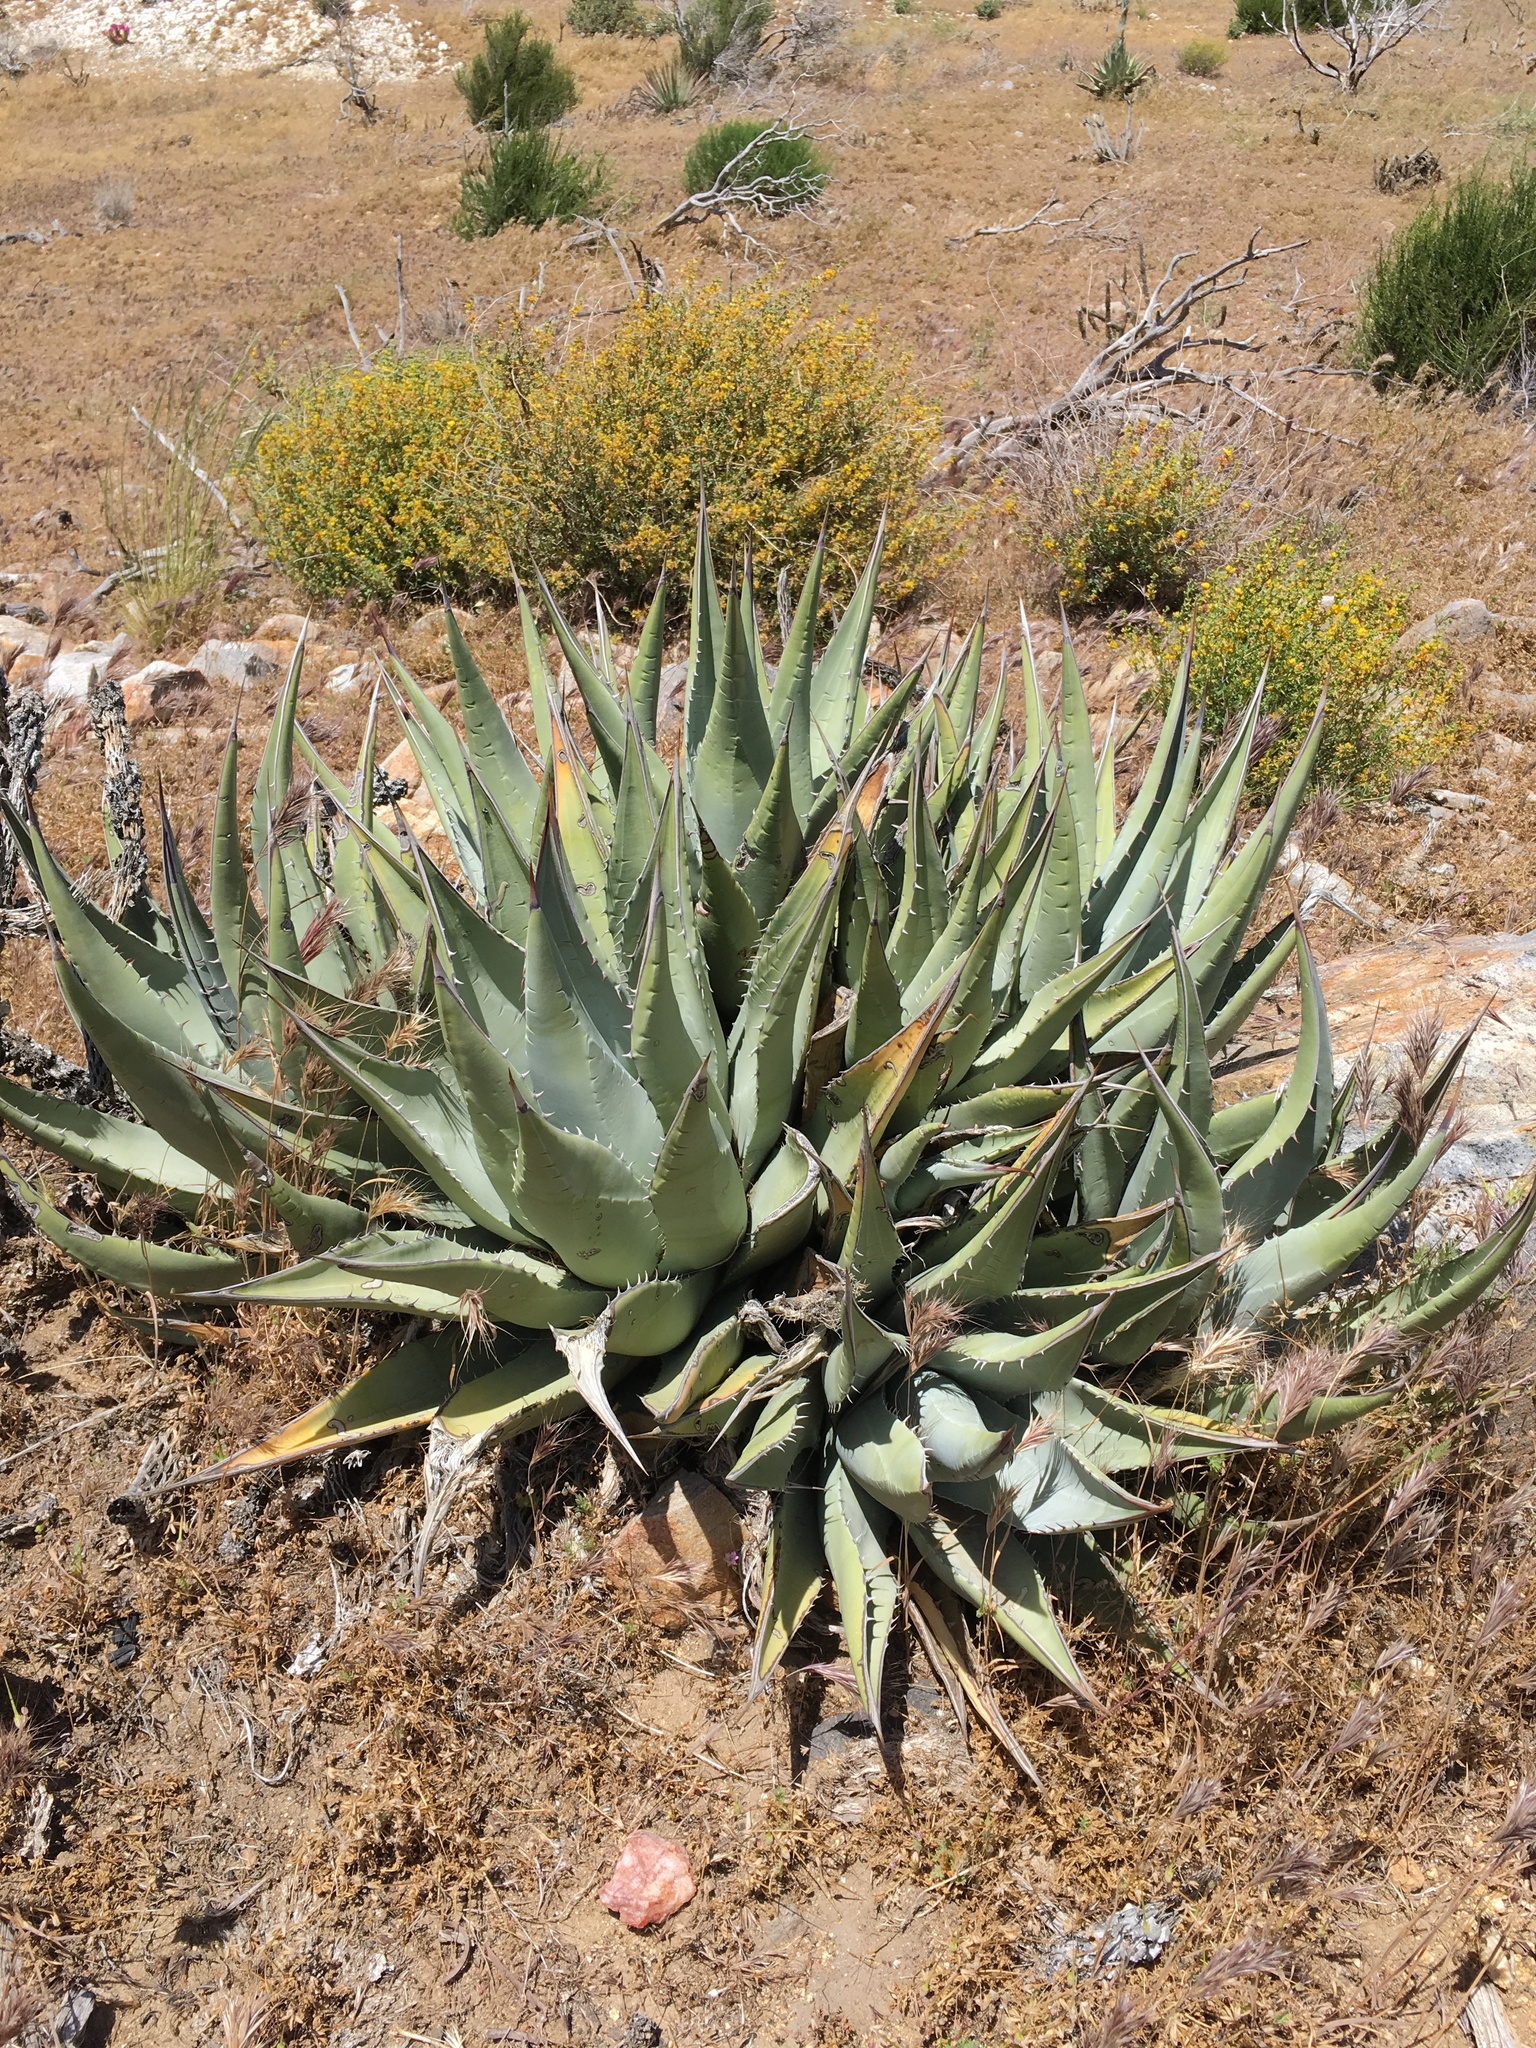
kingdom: Plantae
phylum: Tracheophyta
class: Liliopsida
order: Asparagales
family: Asparagaceae
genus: Agave
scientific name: Agave deserti
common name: Desert agave
